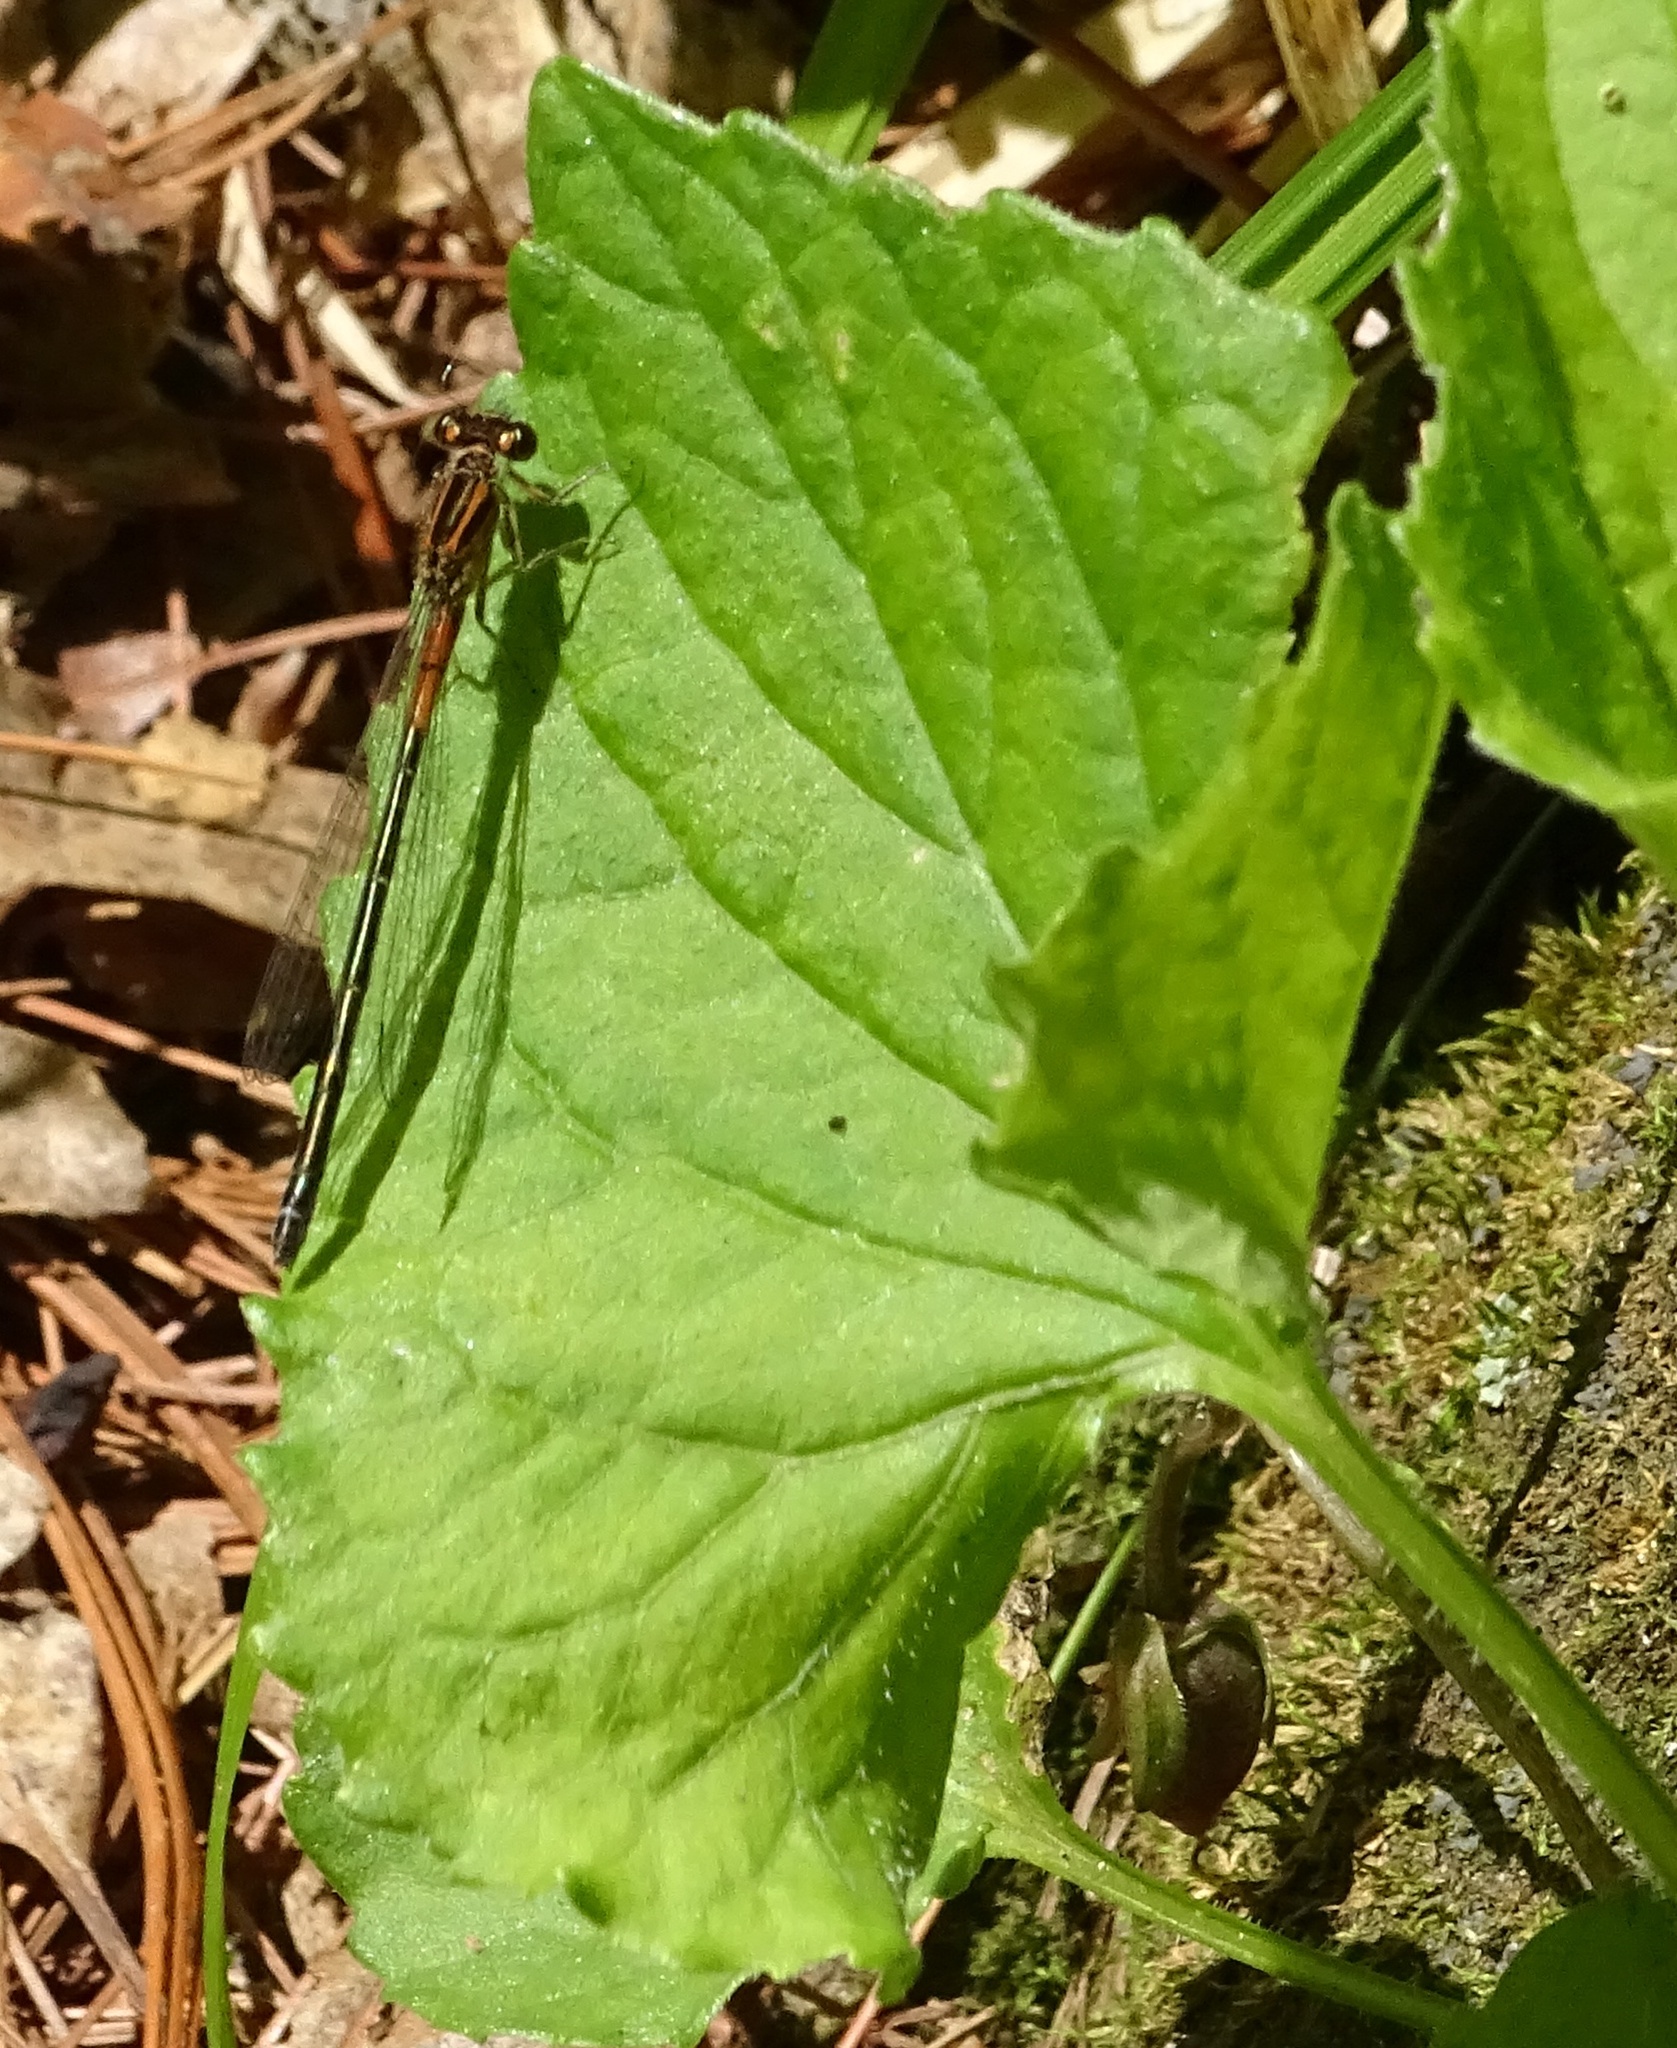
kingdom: Animalia
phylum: Arthropoda
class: Insecta
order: Odonata
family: Coenagrionidae
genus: Ischnura
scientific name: Ischnura verticalis
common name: Eastern forktail
